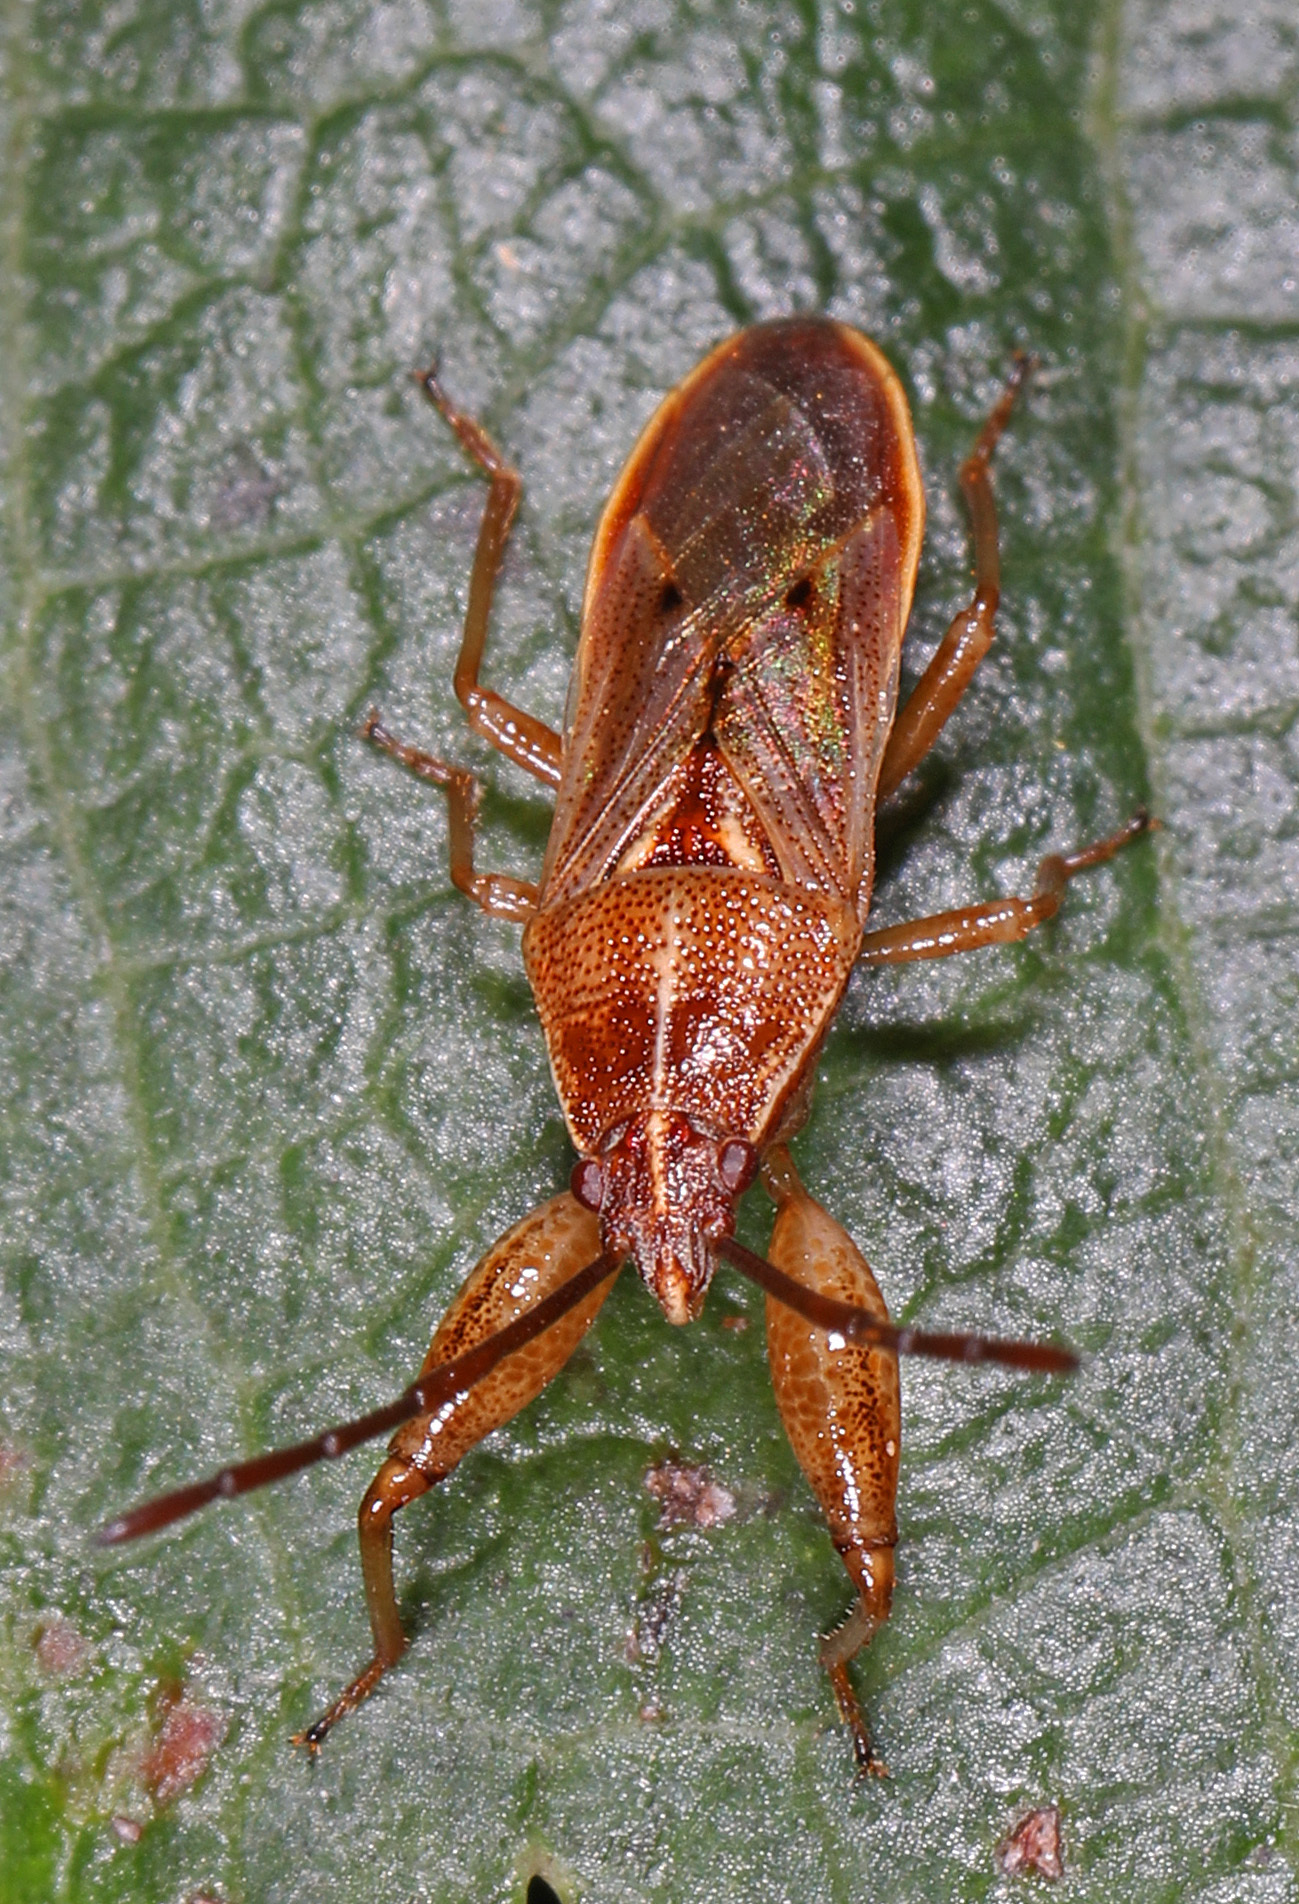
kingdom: Animalia
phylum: Arthropoda
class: Insecta
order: Hemiptera
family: Pachygronthidae
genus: Oedancala
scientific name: Oedancala crassimana
